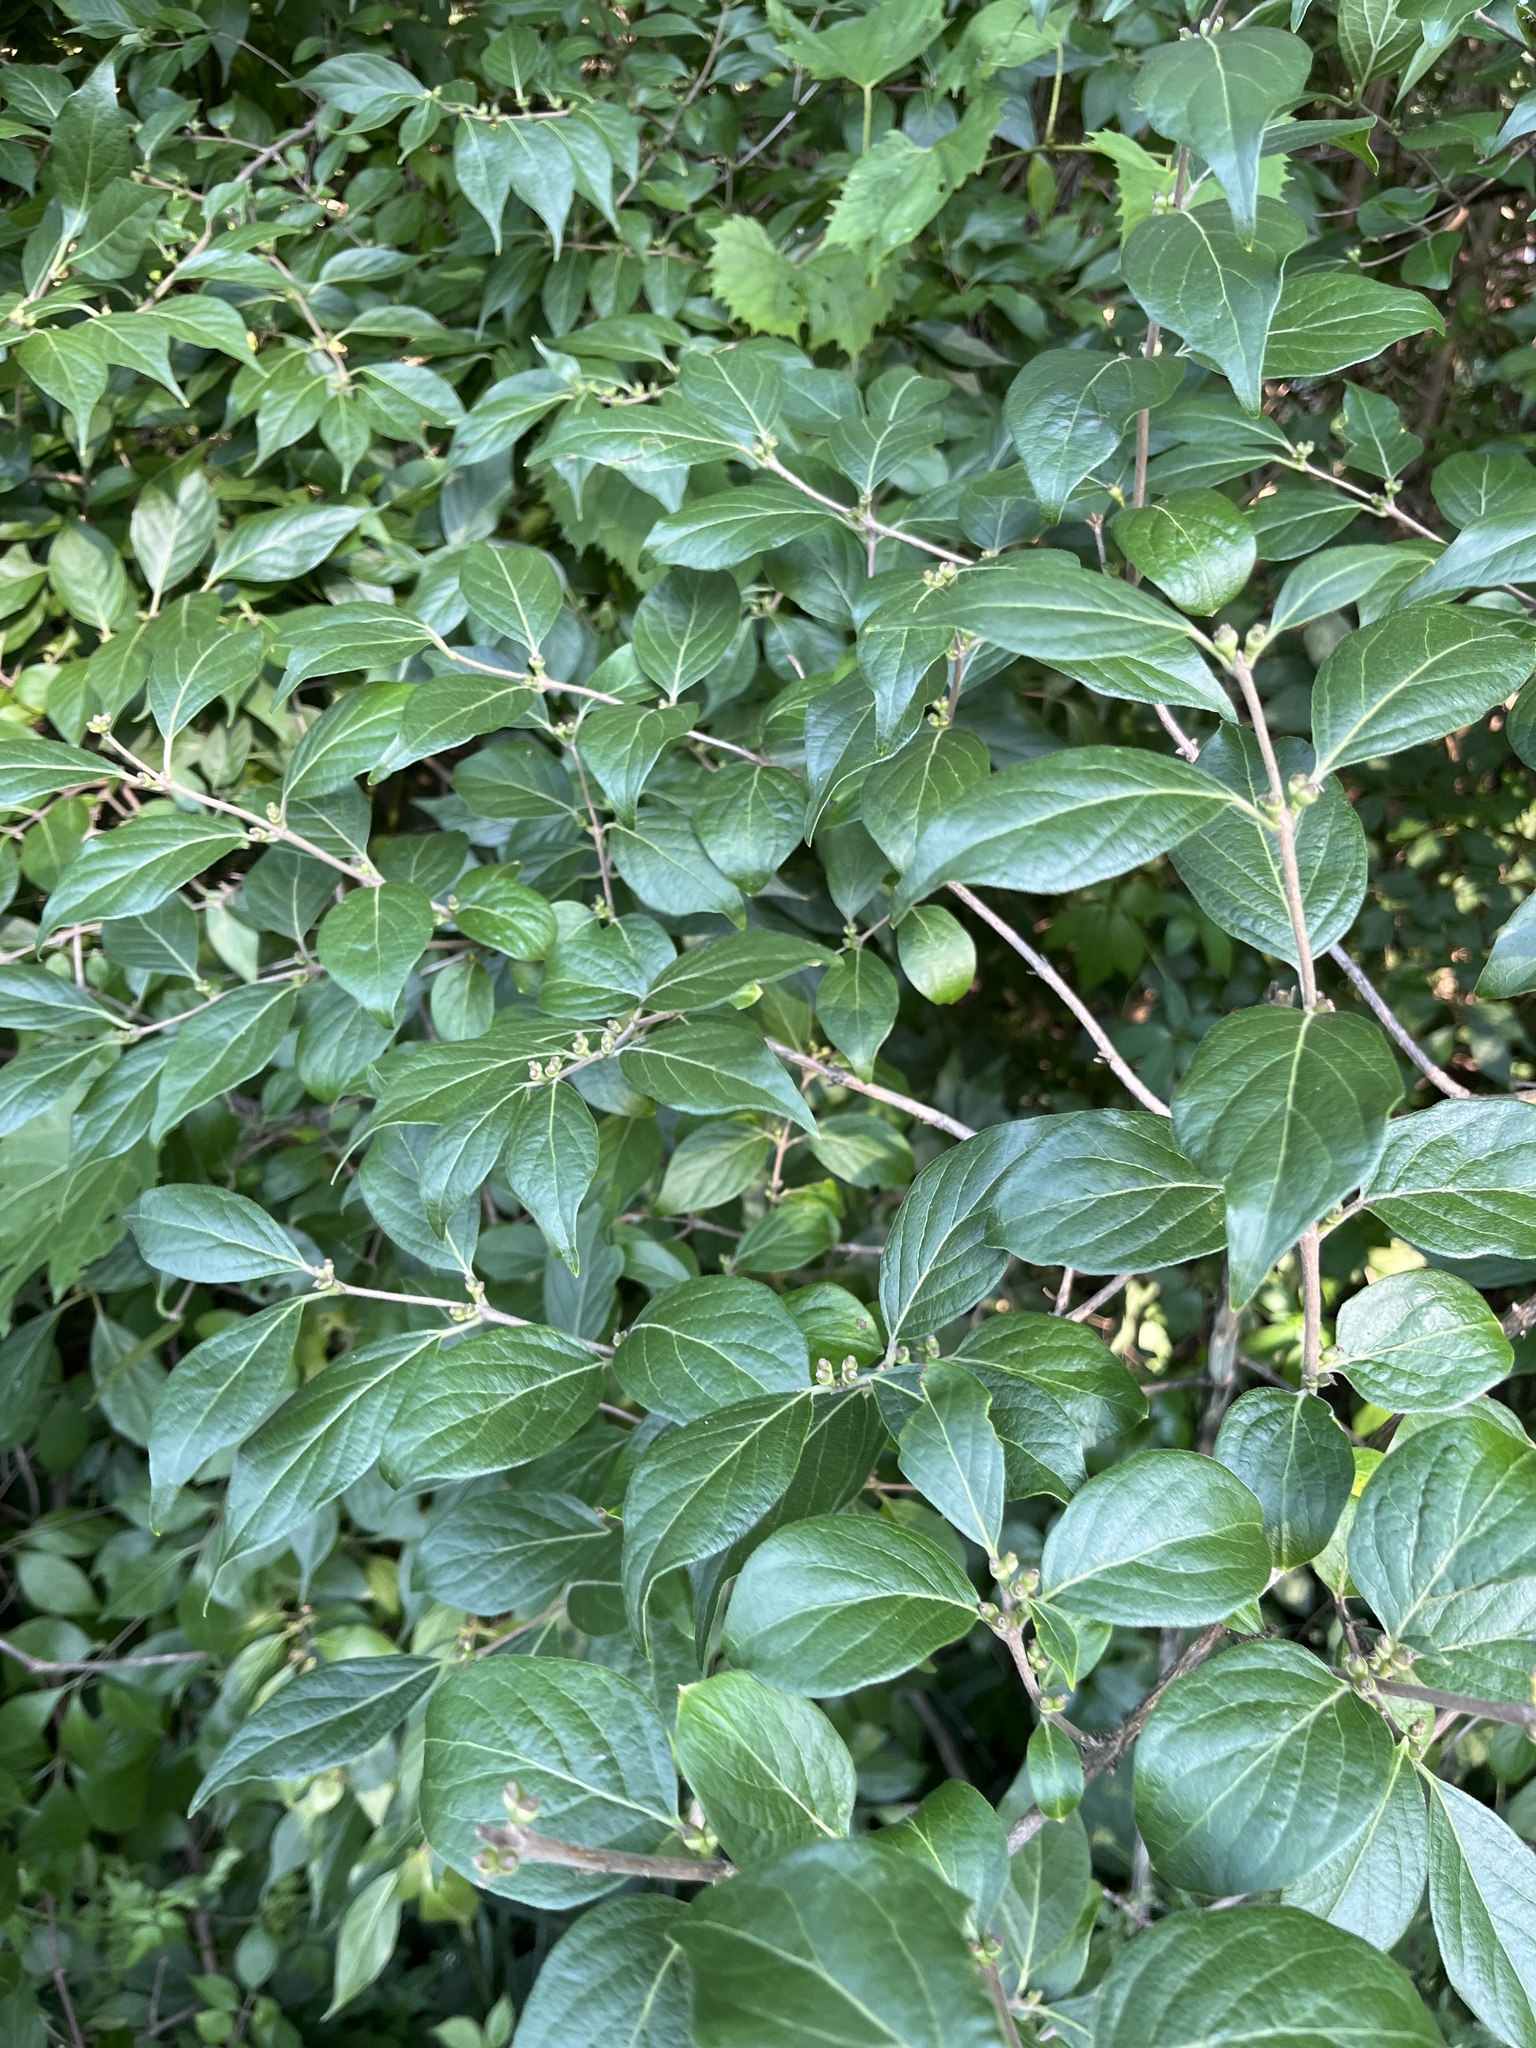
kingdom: Plantae
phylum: Tracheophyta
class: Magnoliopsida
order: Dipsacales
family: Caprifoliaceae
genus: Lonicera
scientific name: Lonicera maackii
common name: Amur honeysuckle
